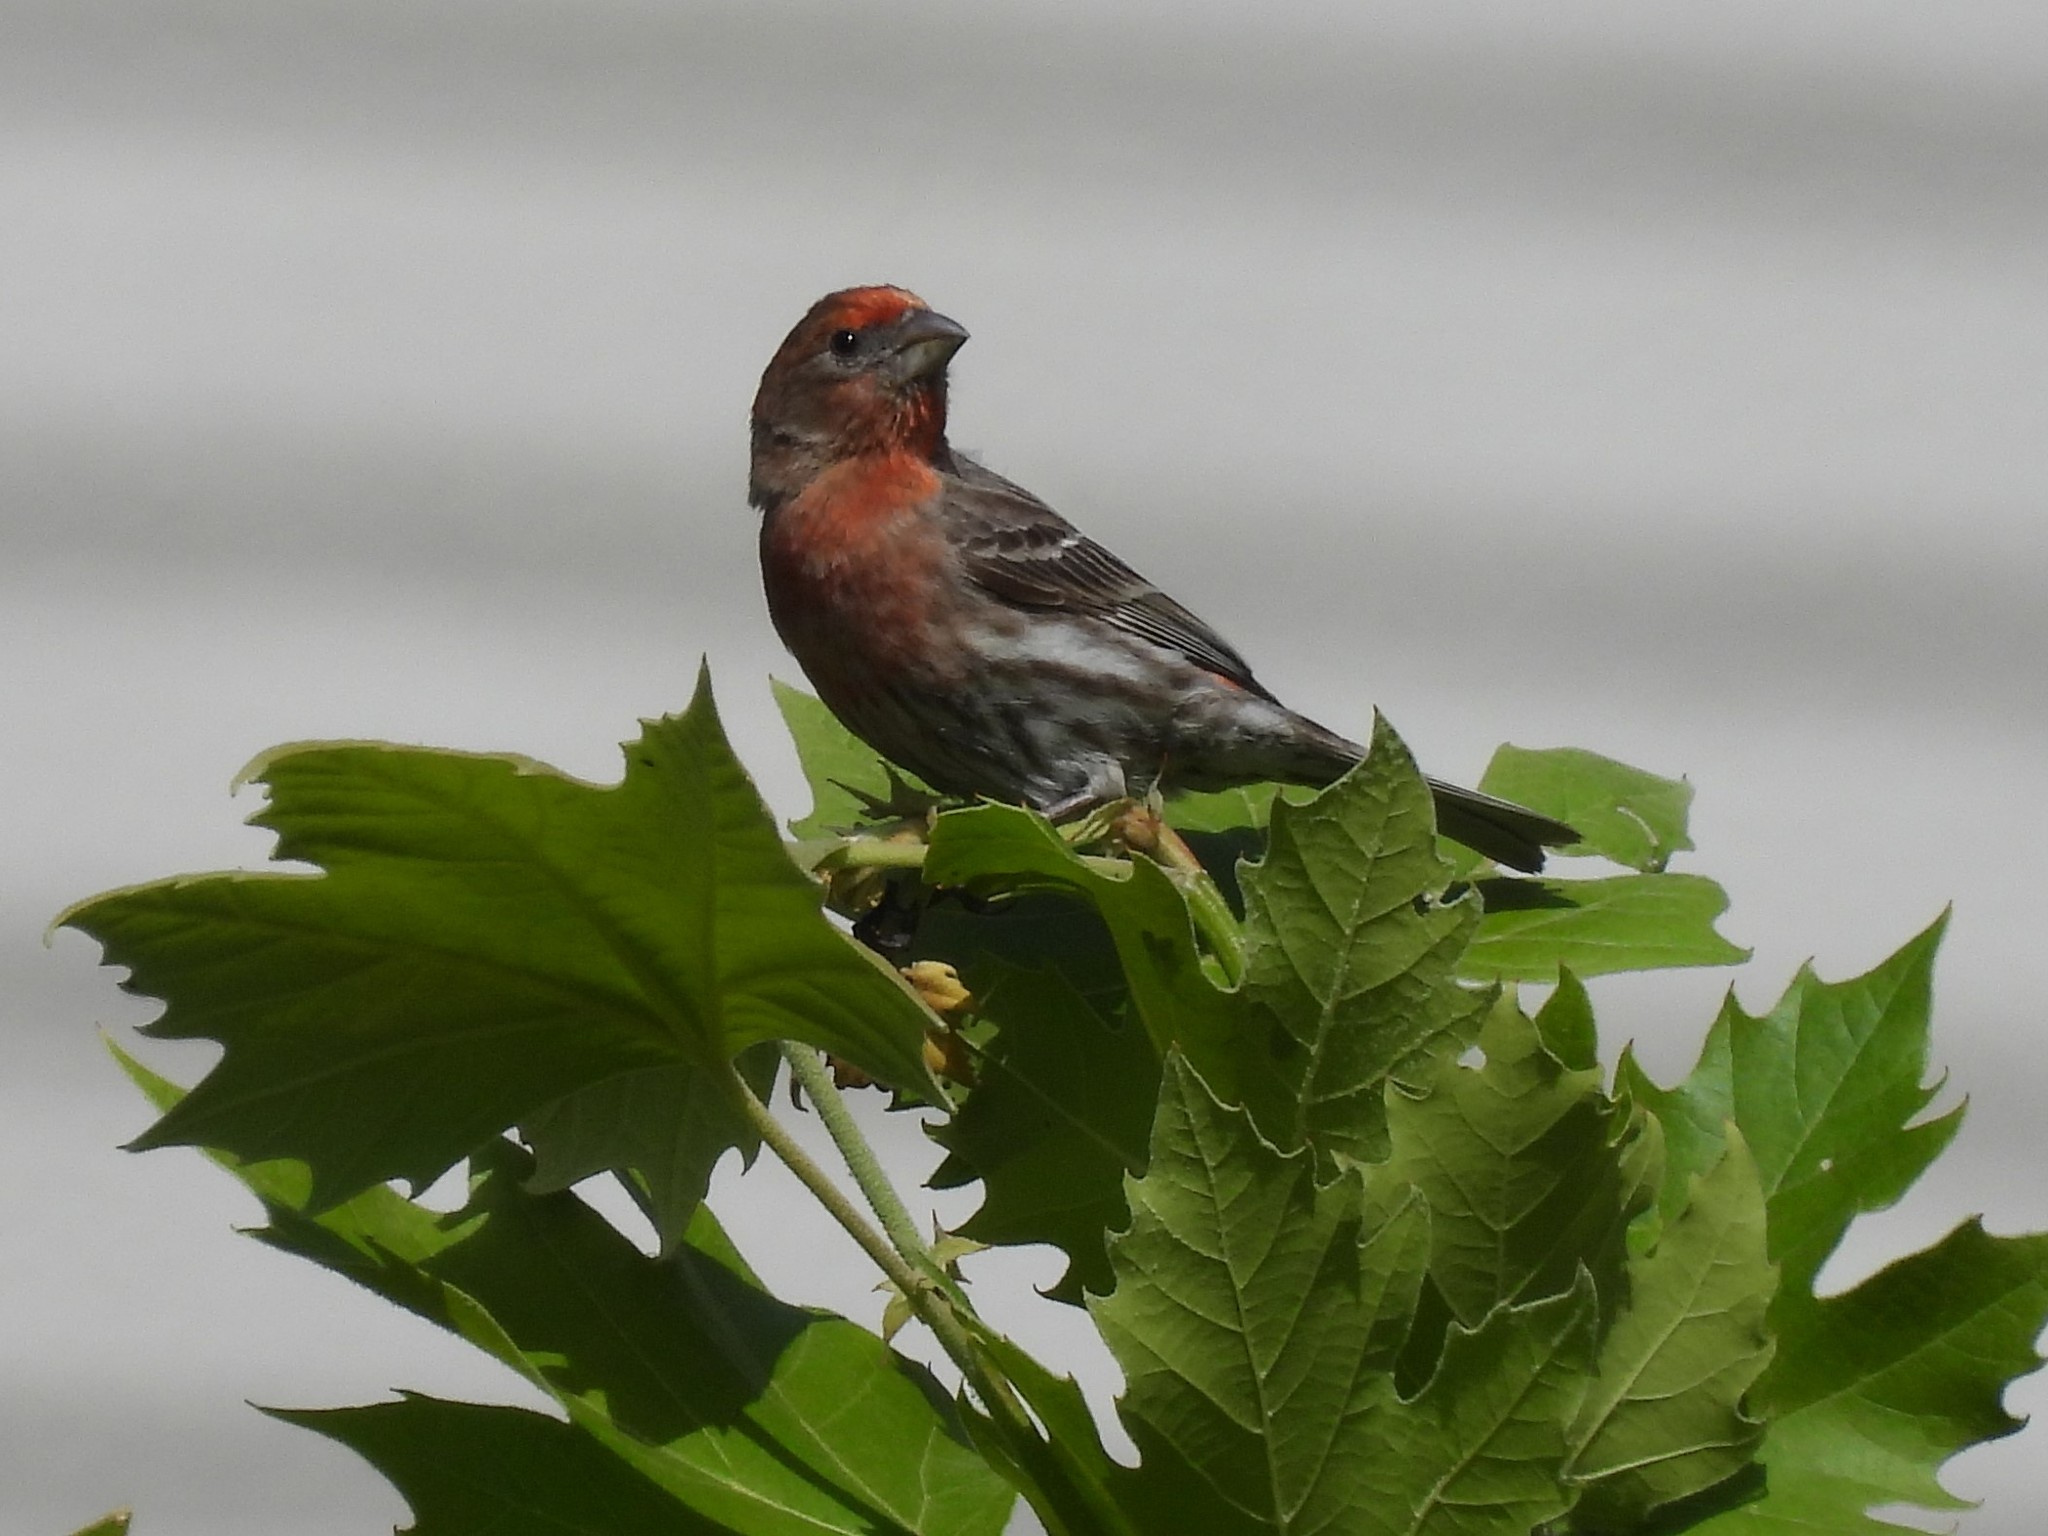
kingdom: Animalia
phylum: Chordata
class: Aves
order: Passeriformes
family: Fringillidae
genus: Haemorhous
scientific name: Haemorhous mexicanus
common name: House finch
